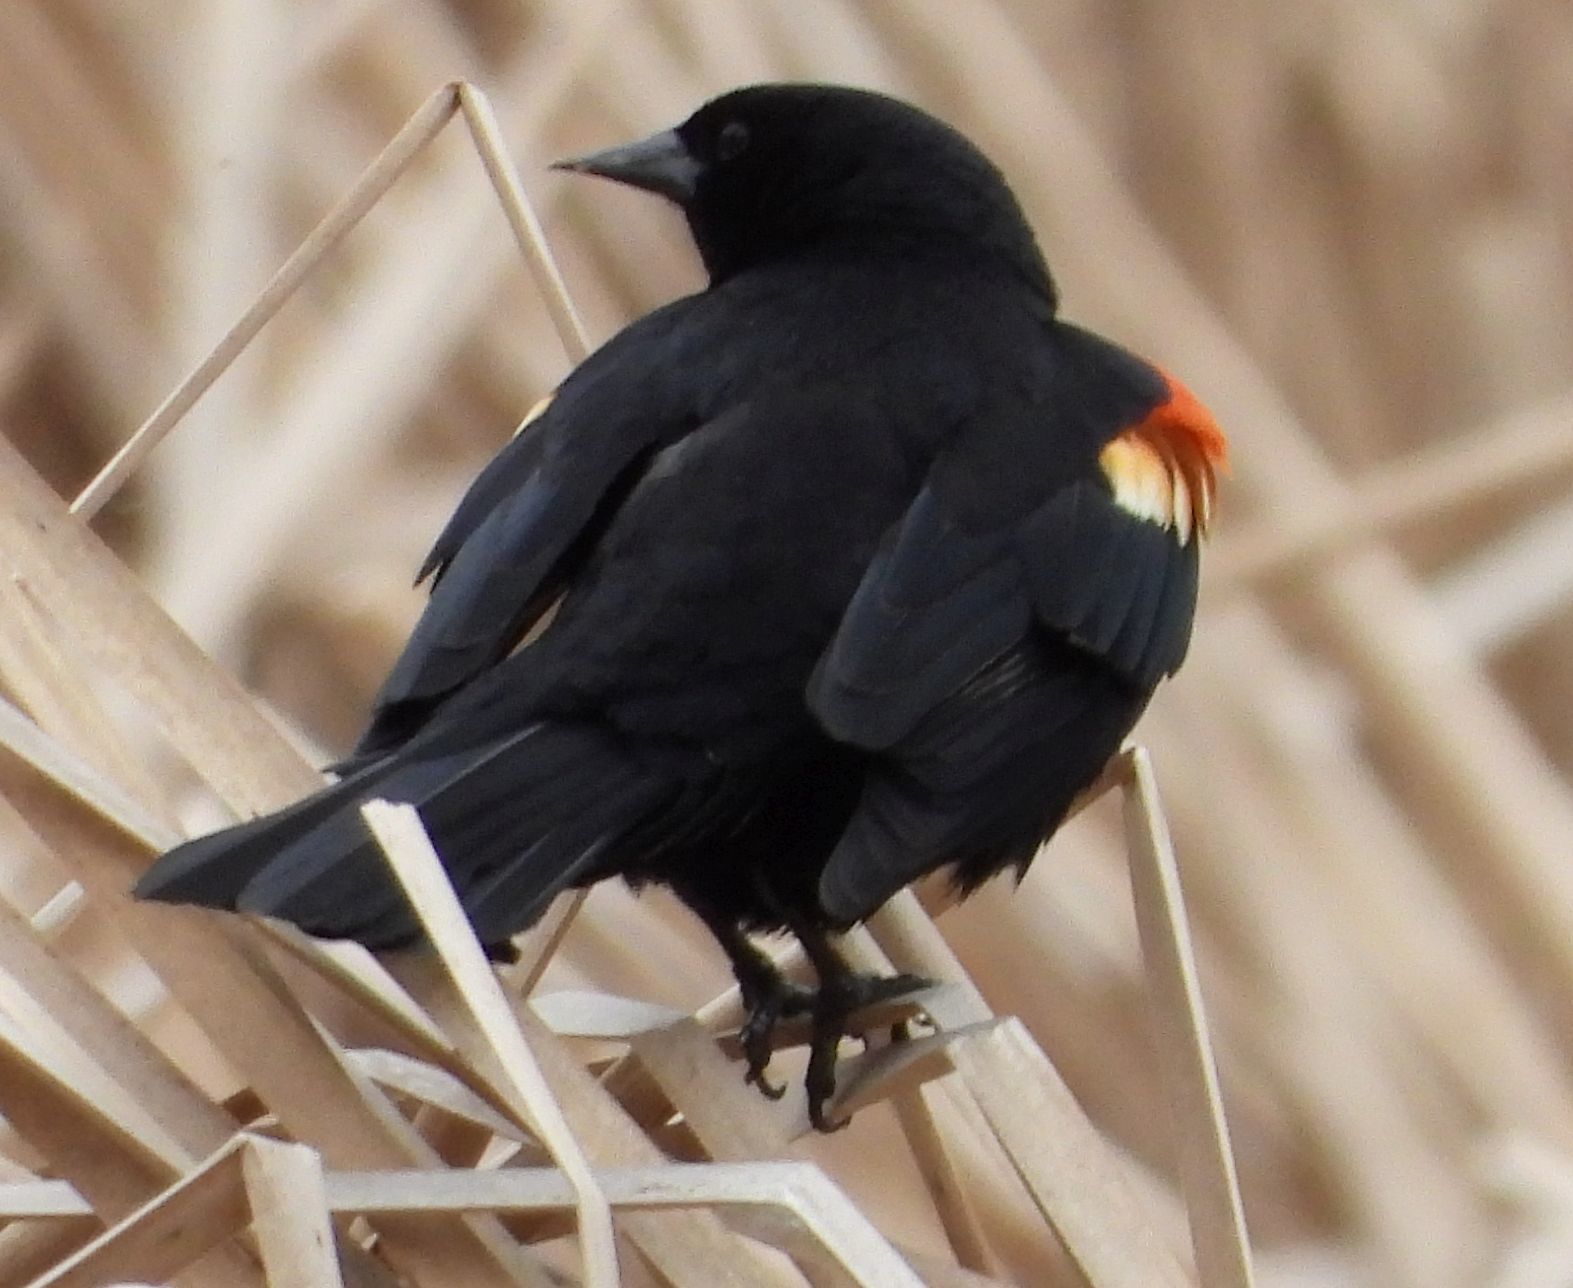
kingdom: Animalia
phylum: Chordata
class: Aves
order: Passeriformes
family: Icteridae
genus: Agelaius
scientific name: Agelaius phoeniceus
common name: Red-winged blackbird
